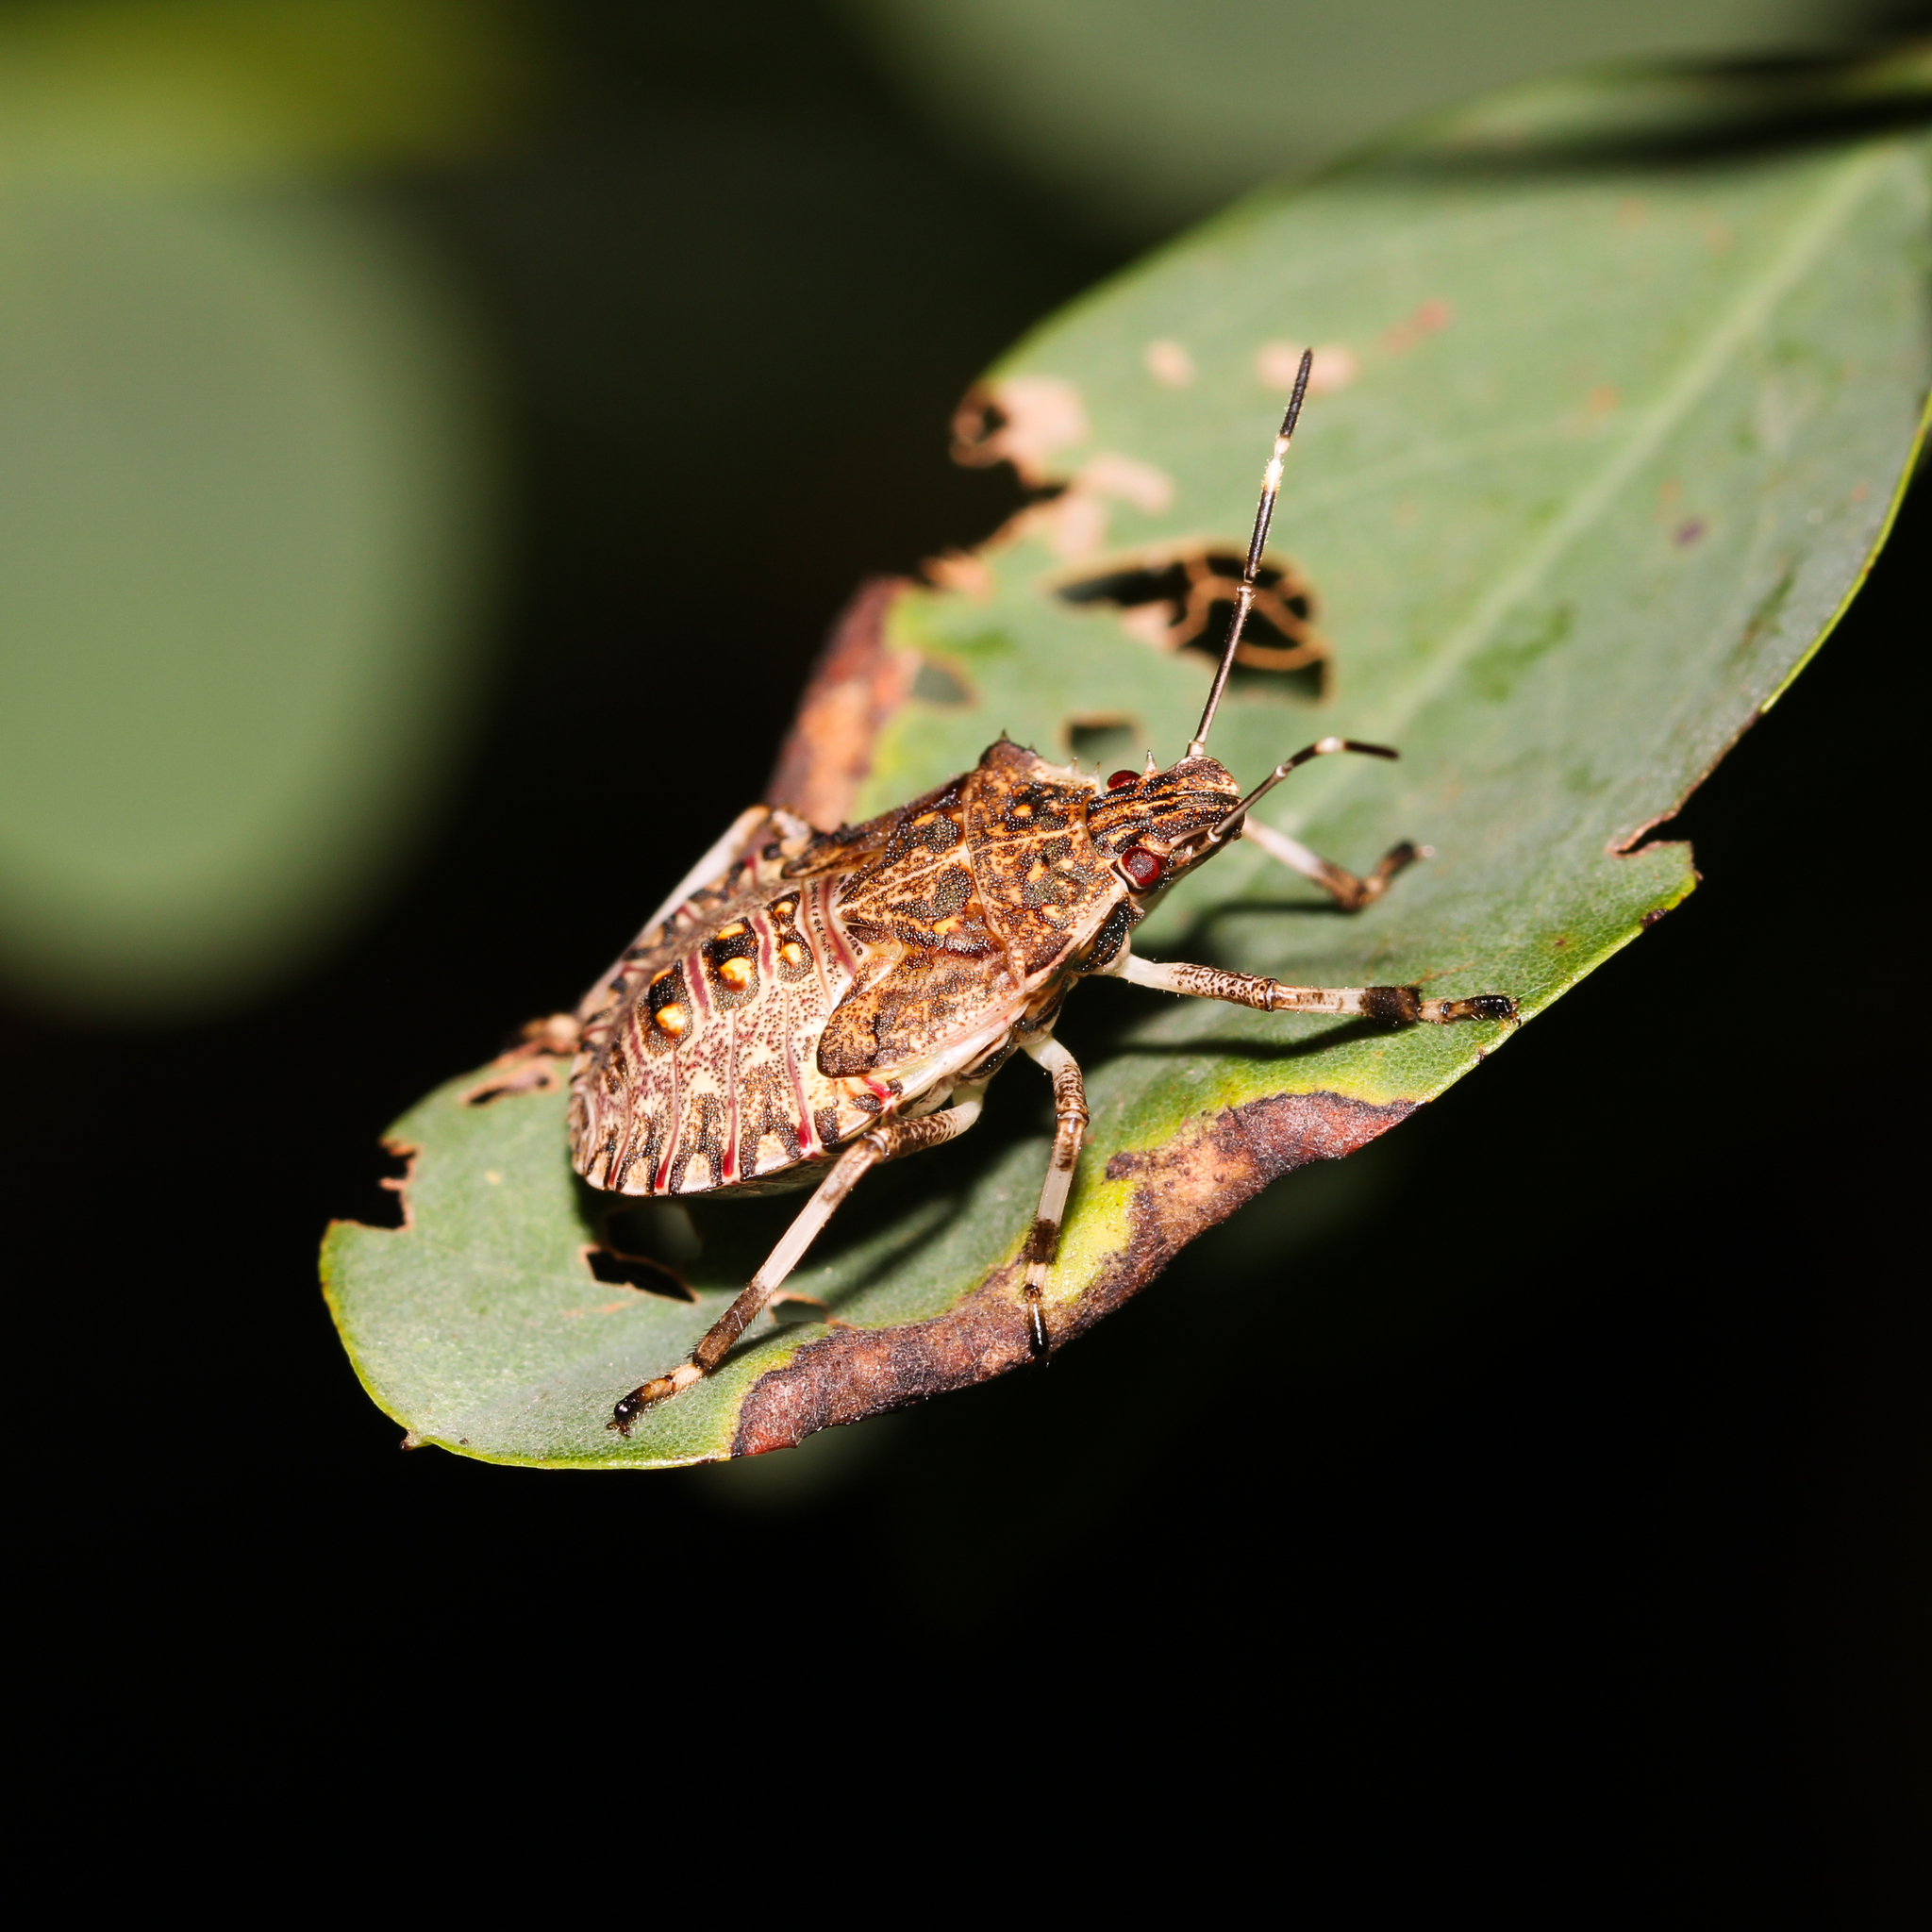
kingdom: Animalia
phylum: Arthropoda
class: Insecta
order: Hemiptera
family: Pentatomidae
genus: Halyomorpha
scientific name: Halyomorpha halys
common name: Brown marmorated stink bug
